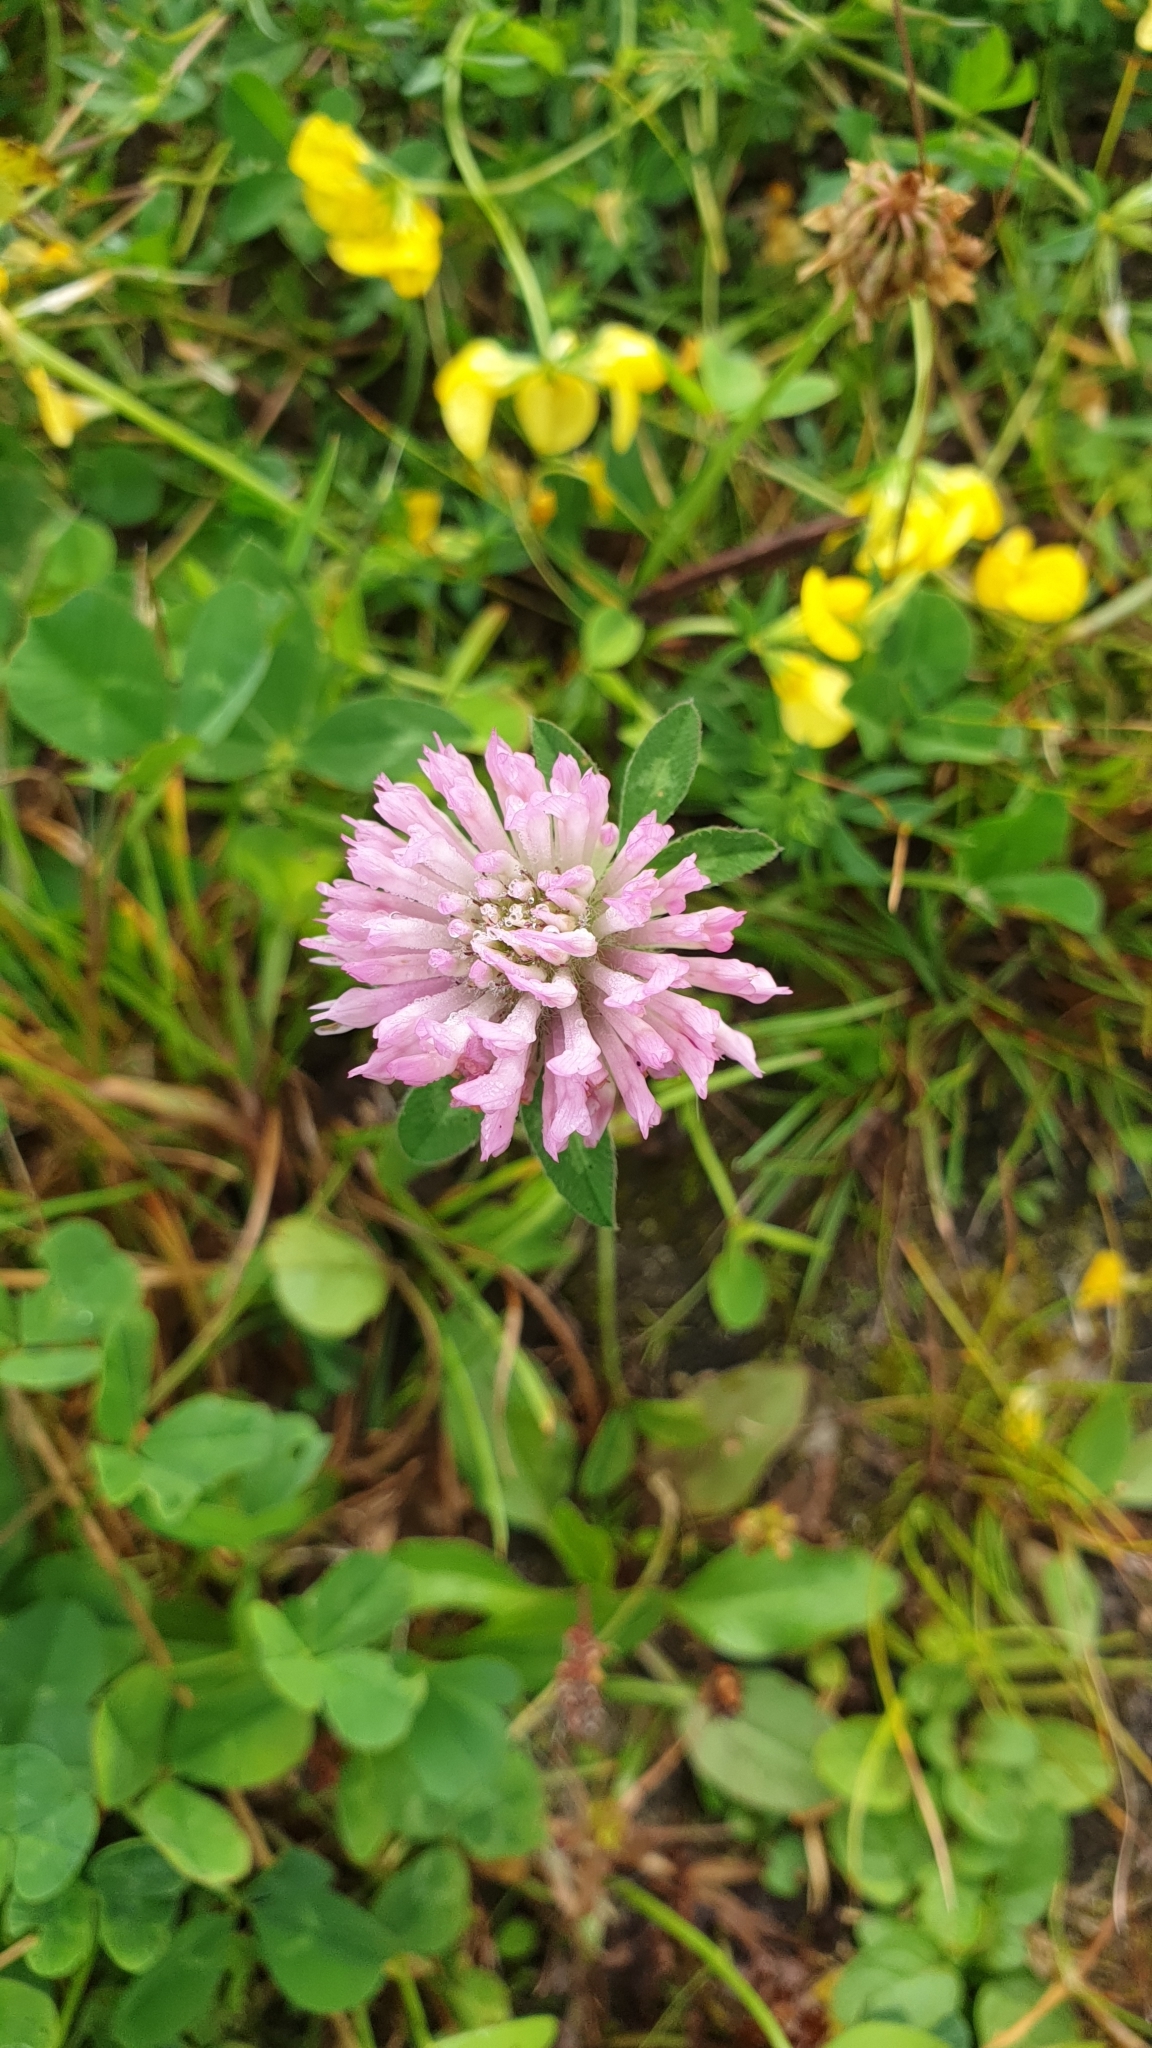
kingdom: Plantae
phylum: Tracheophyta
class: Magnoliopsida
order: Fabales
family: Fabaceae
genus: Trifolium
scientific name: Trifolium pratense
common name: Red clover
